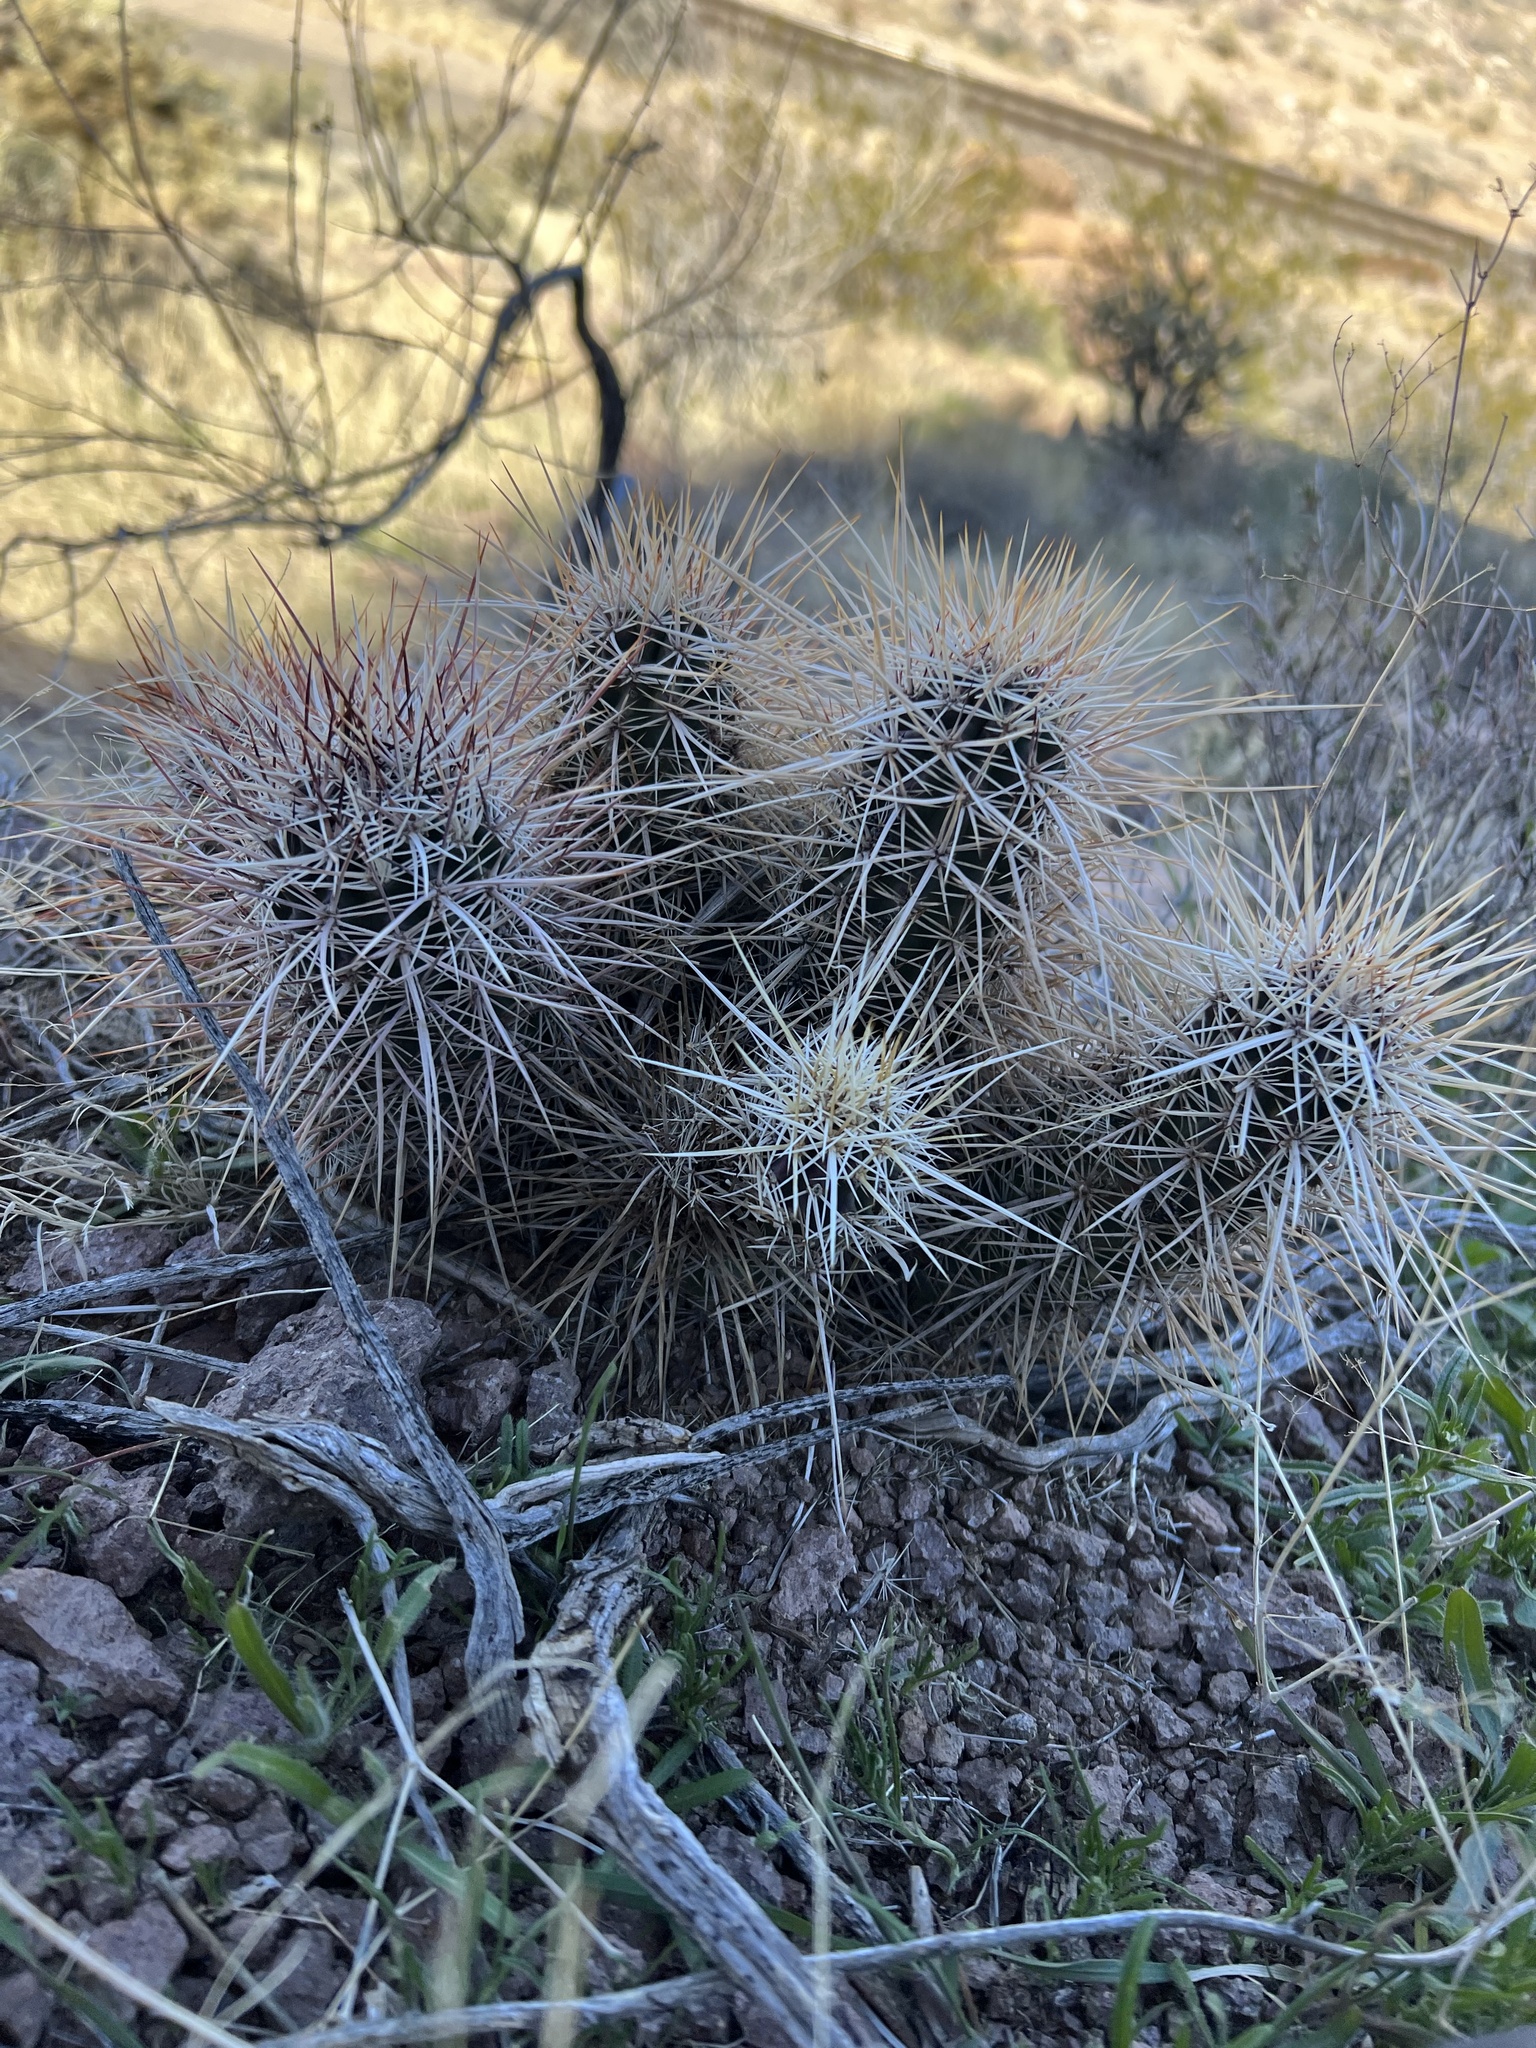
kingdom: Plantae
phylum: Tracheophyta
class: Magnoliopsida
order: Caryophyllales
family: Cactaceae
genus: Echinocereus
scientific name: Echinocereus engelmannii
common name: Engelmann's hedgehog cactus
